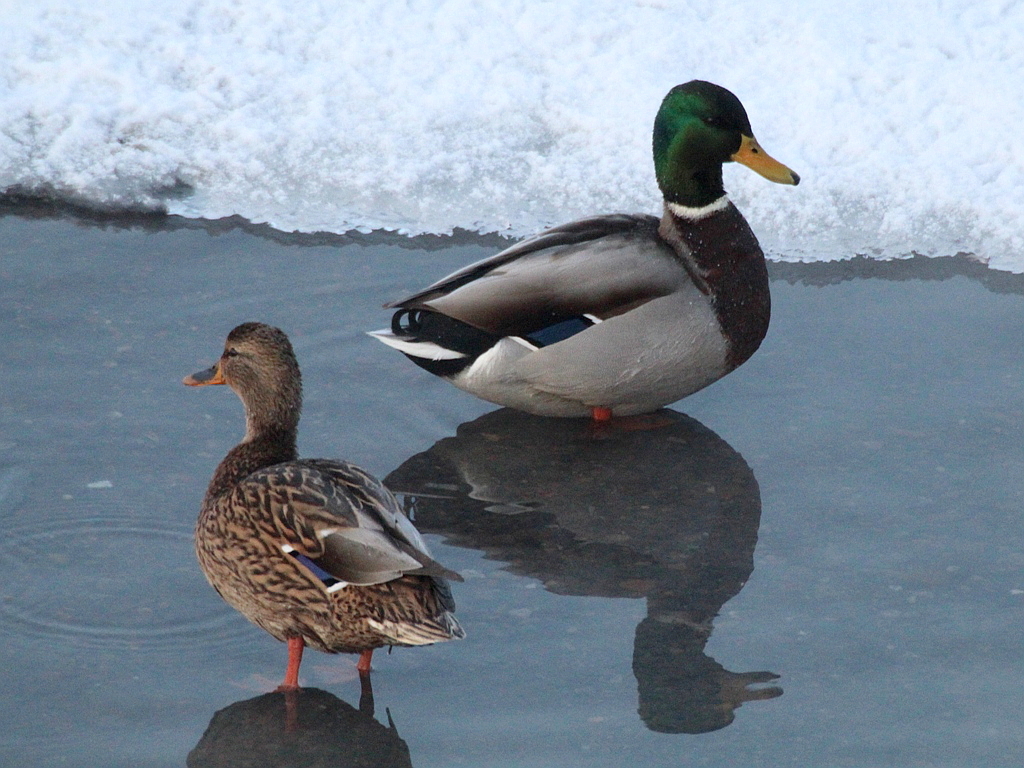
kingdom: Animalia
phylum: Chordata
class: Aves
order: Anseriformes
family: Anatidae
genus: Anas
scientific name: Anas platyrhynchos
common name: Mallard
